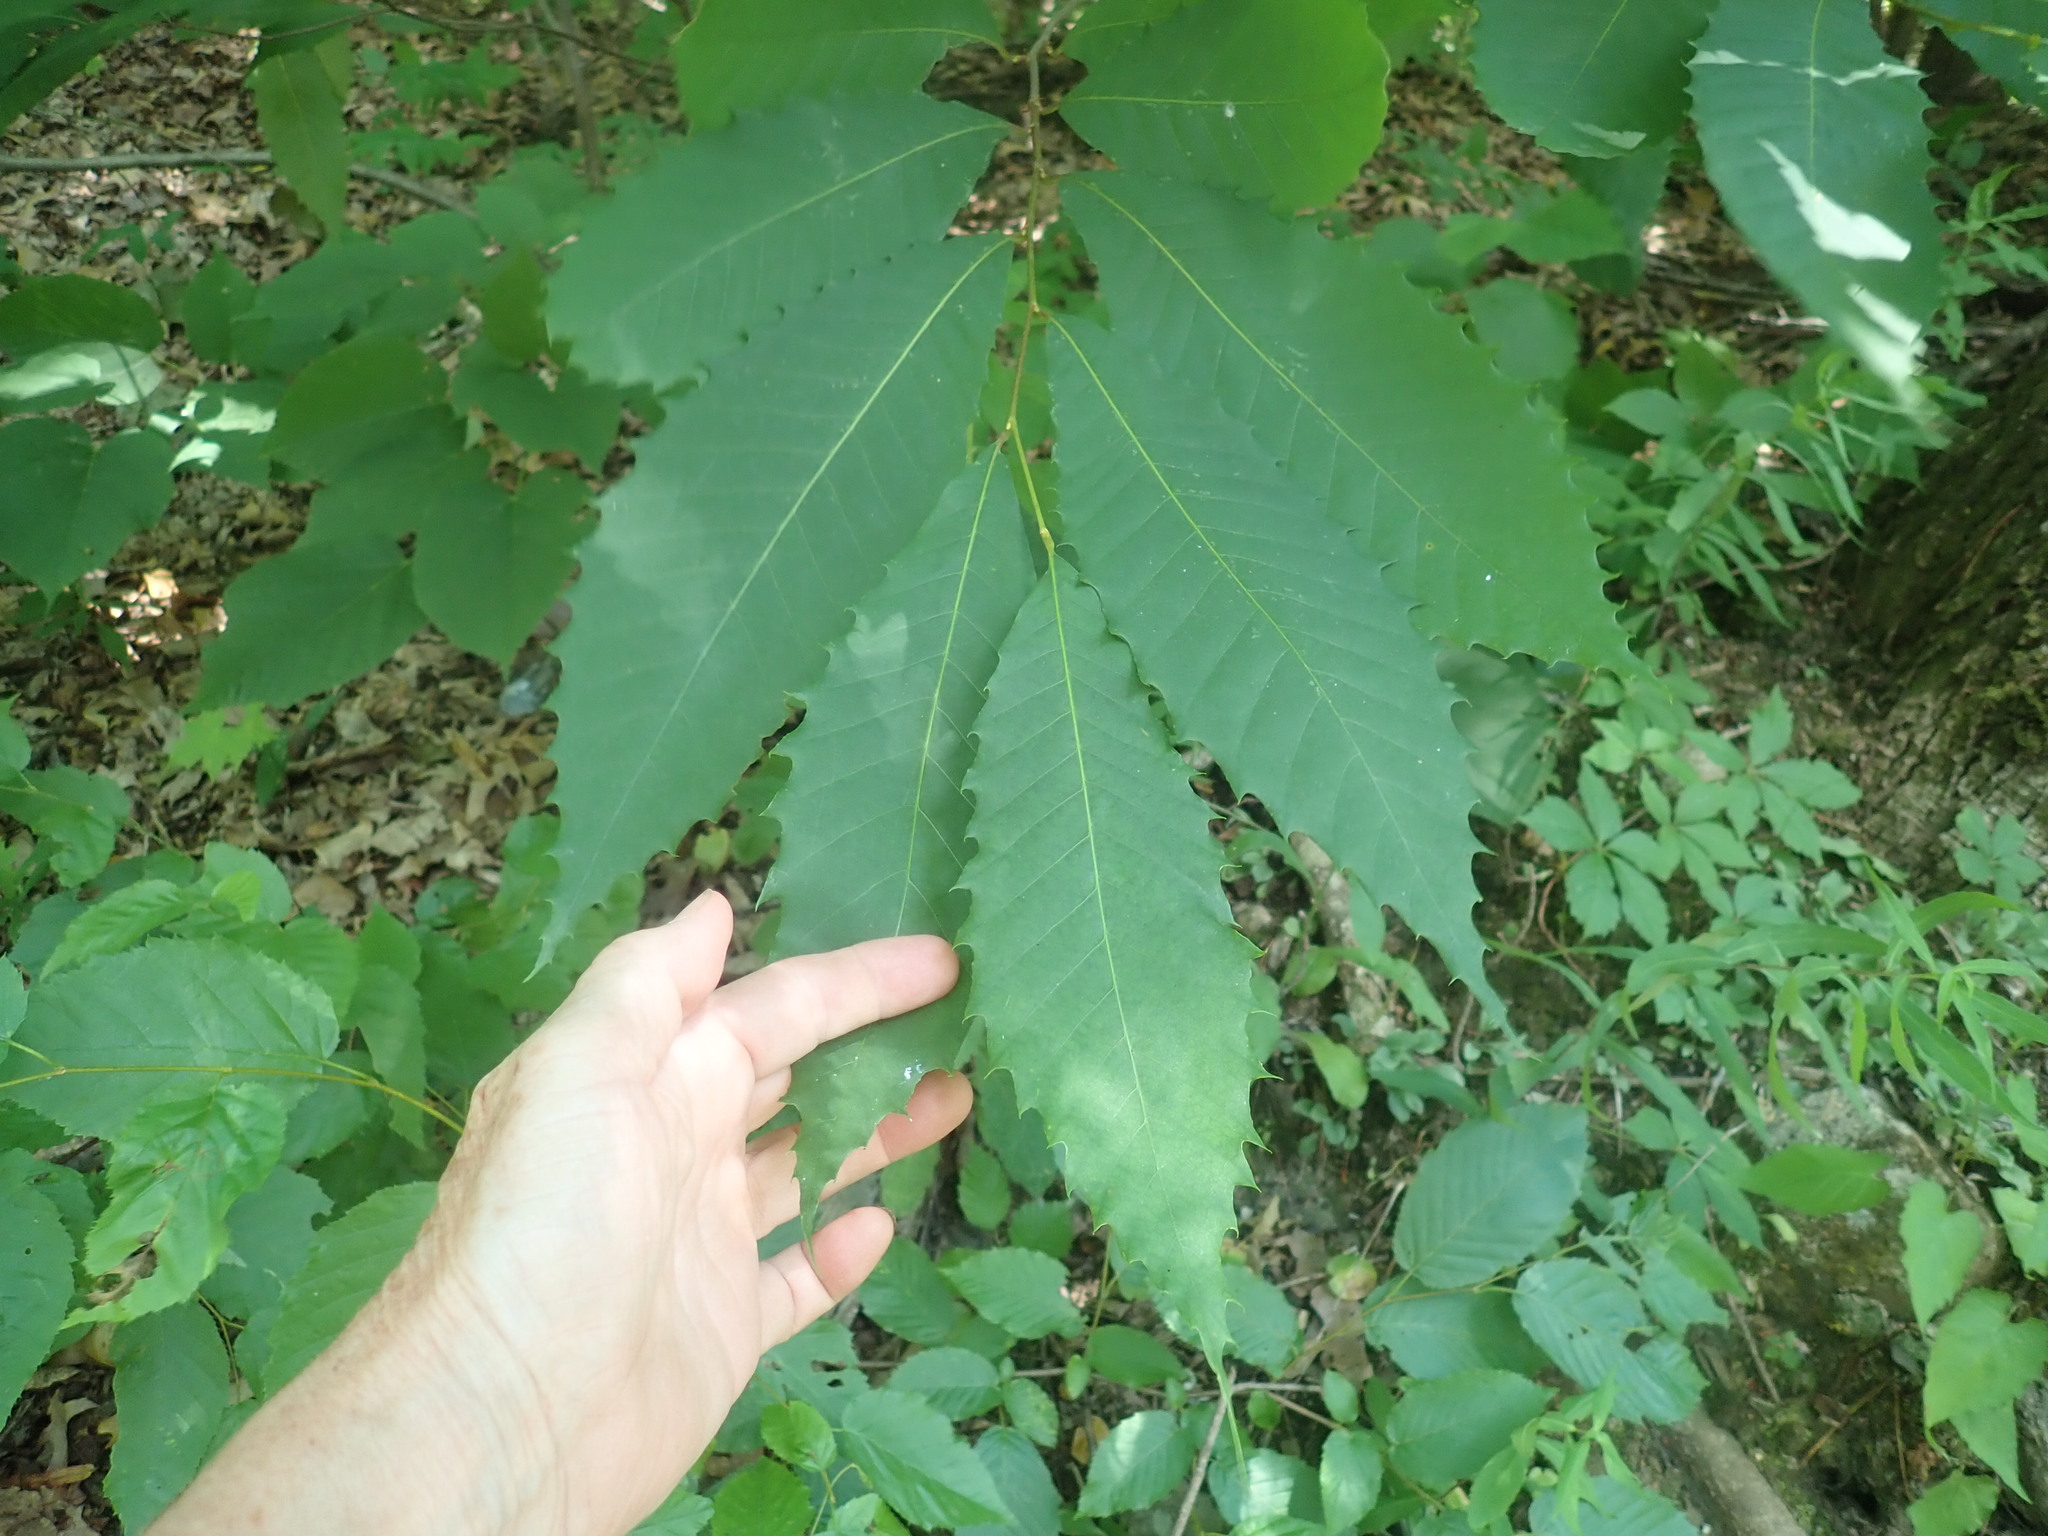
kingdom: Plantae
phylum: Tracheophyta
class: Magnoliopsida
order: Fagales
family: Fagaceae
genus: Castanea
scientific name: Castanea dentata
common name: American chestnut
